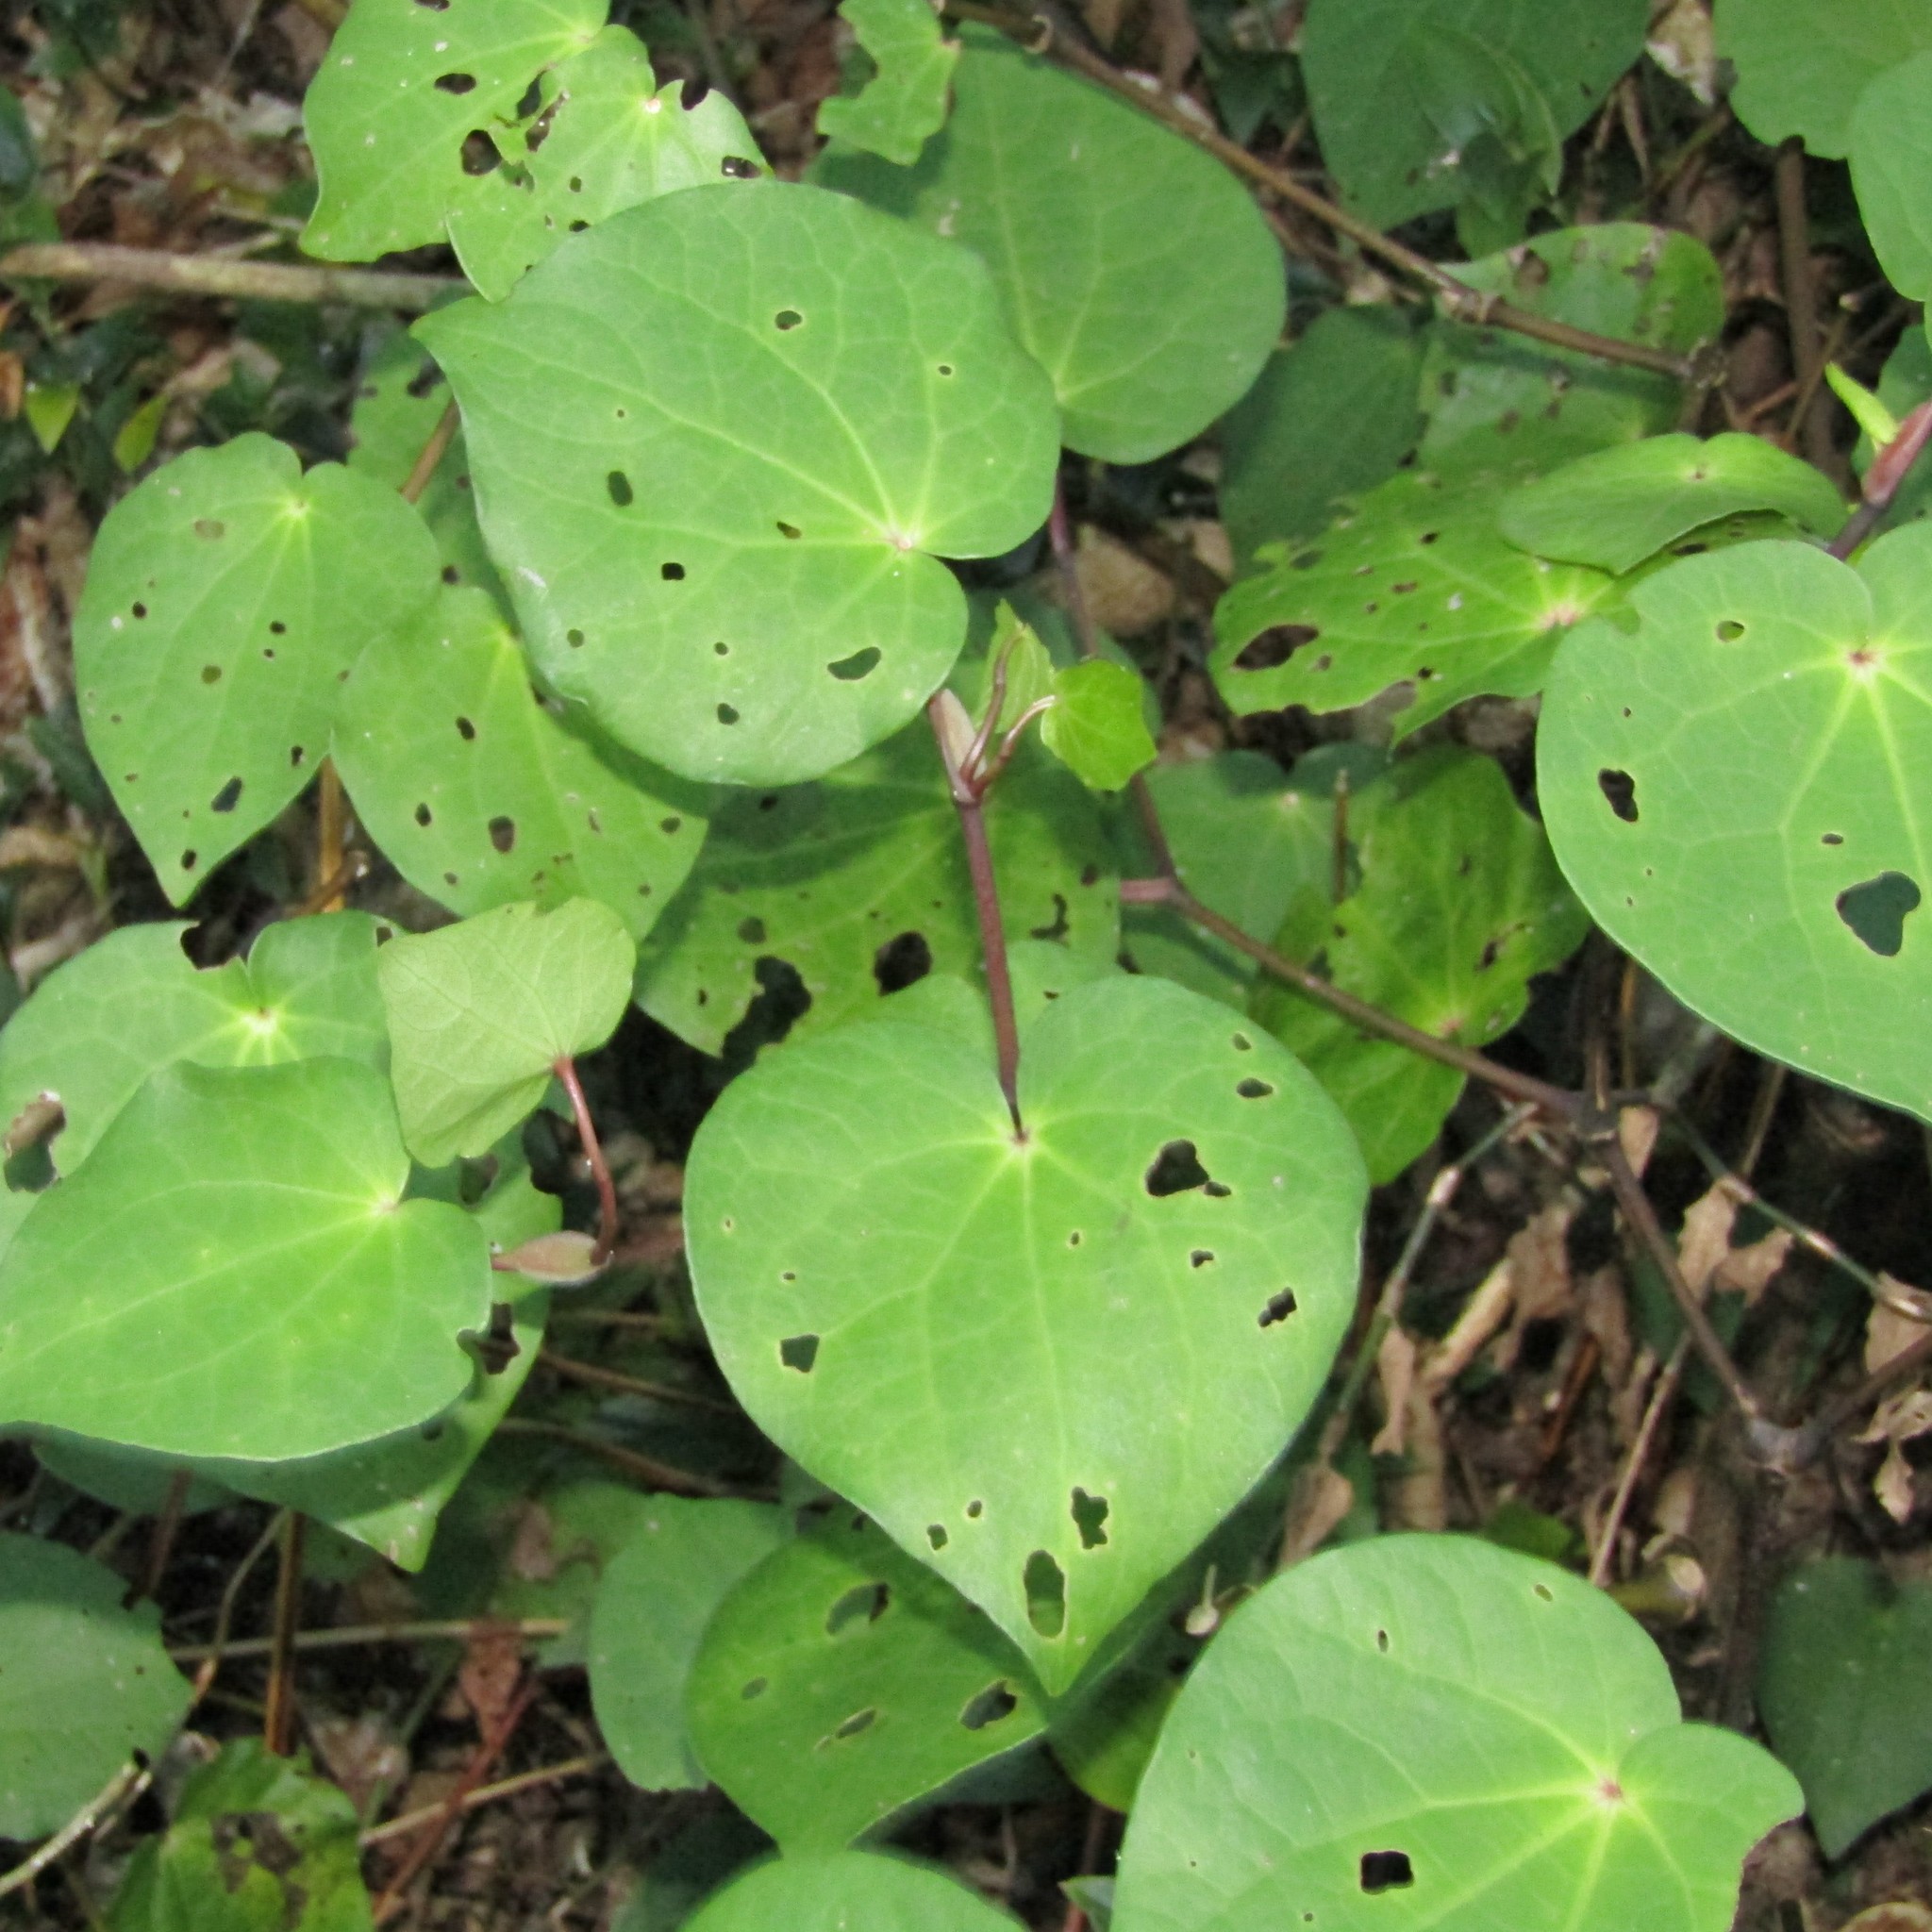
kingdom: Plantae
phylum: Tracheophyta
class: Magnoliopsida
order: Piperales
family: Piperaceae
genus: Macropiper
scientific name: Macropiper excelsum
